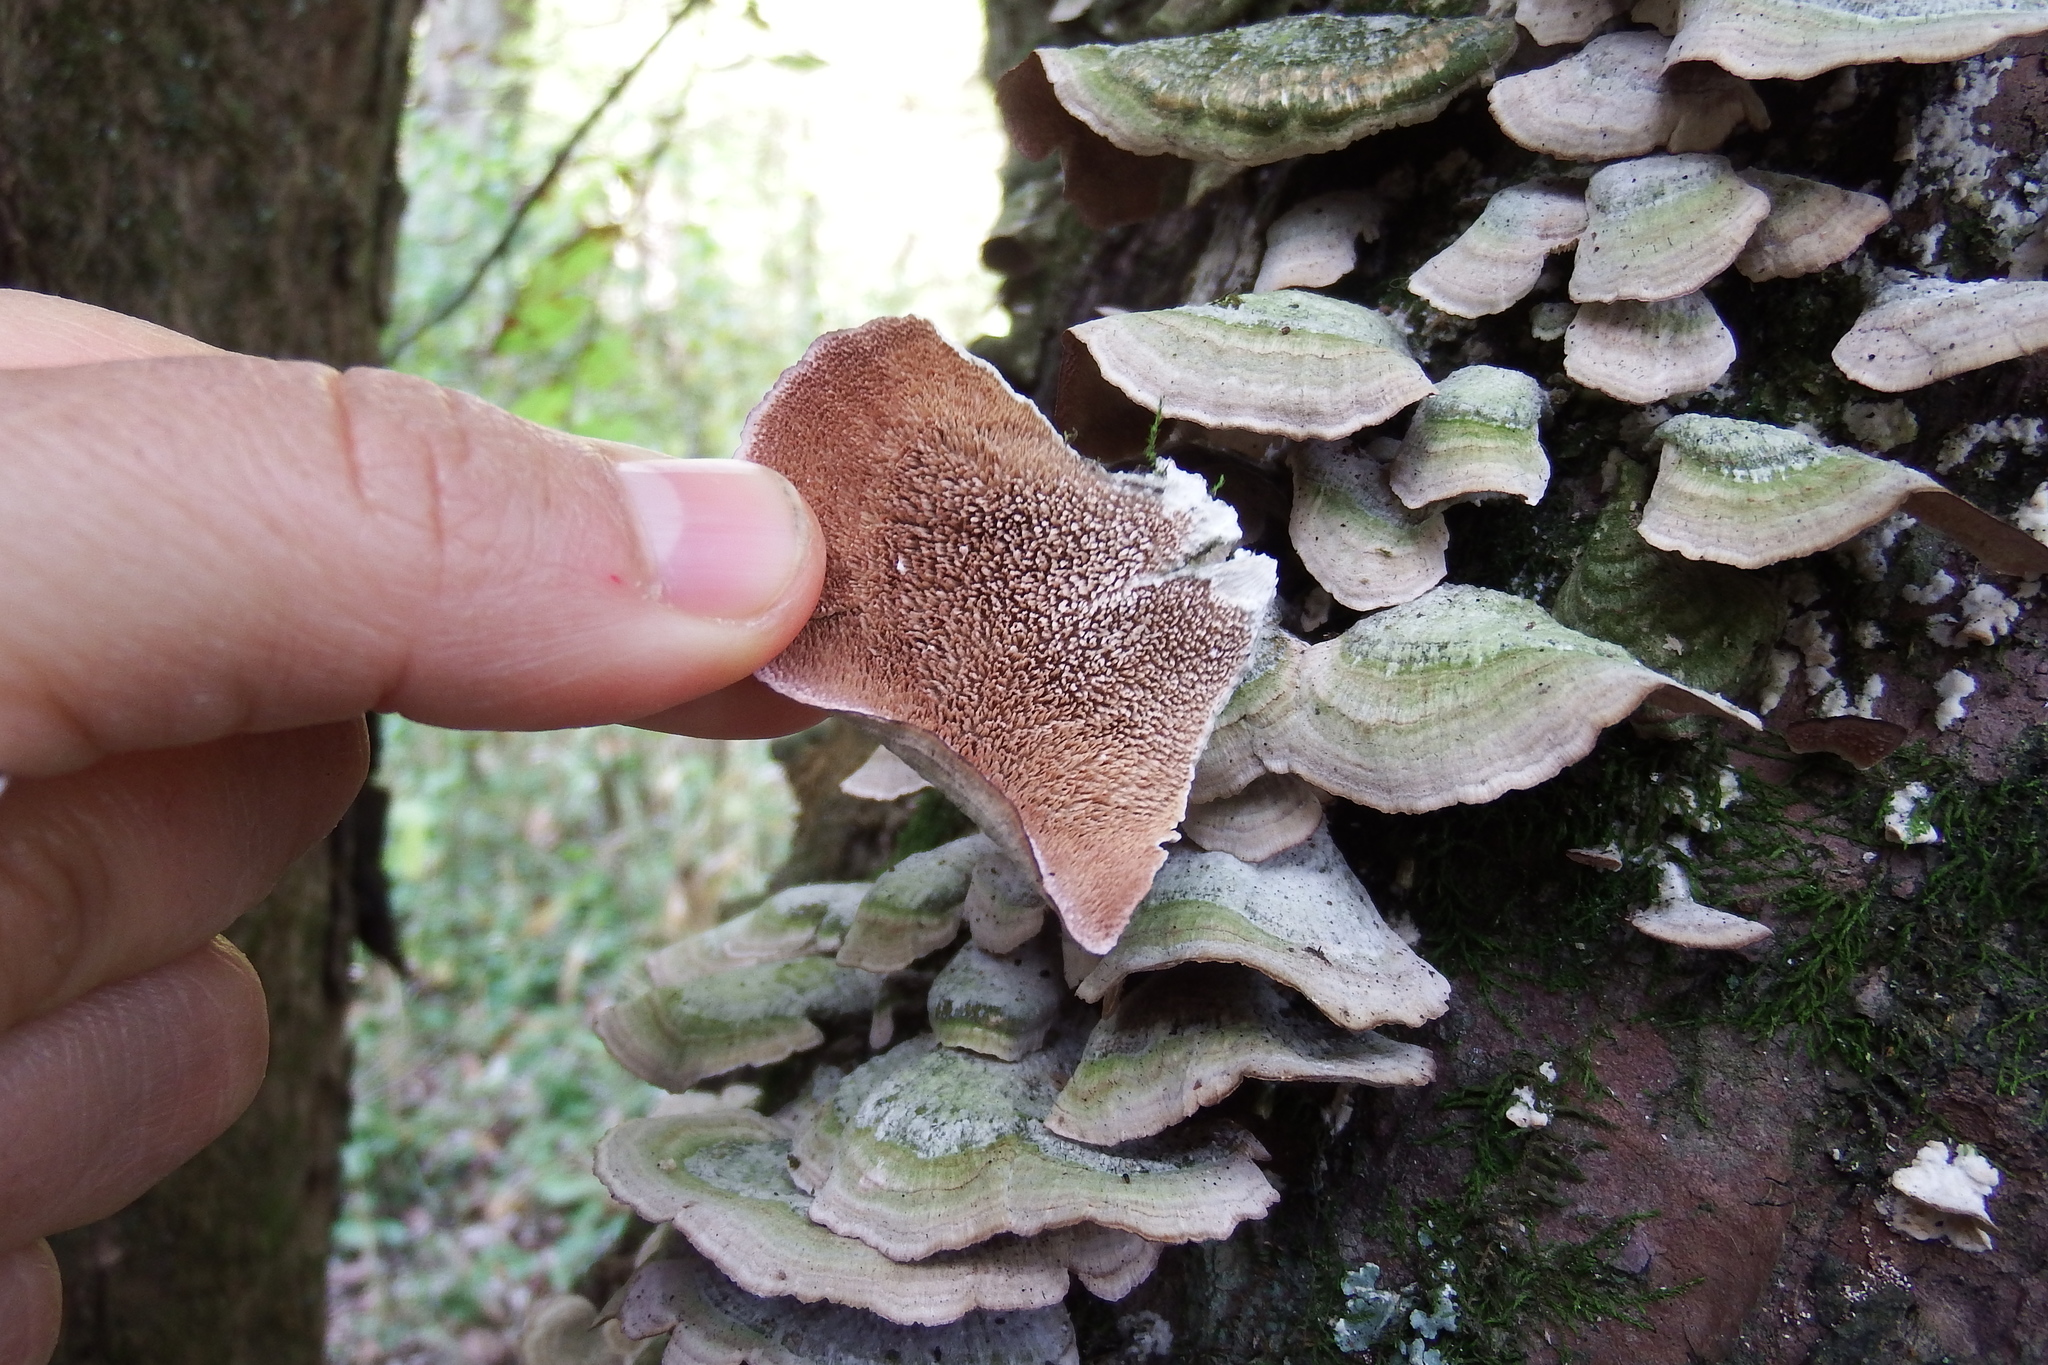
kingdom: Fungi
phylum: Basidiomycota
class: Agaricomycetes
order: Hymenochaetales
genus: Trichaptum
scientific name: Trichaptum biforme
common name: Violet-toothed polypore
